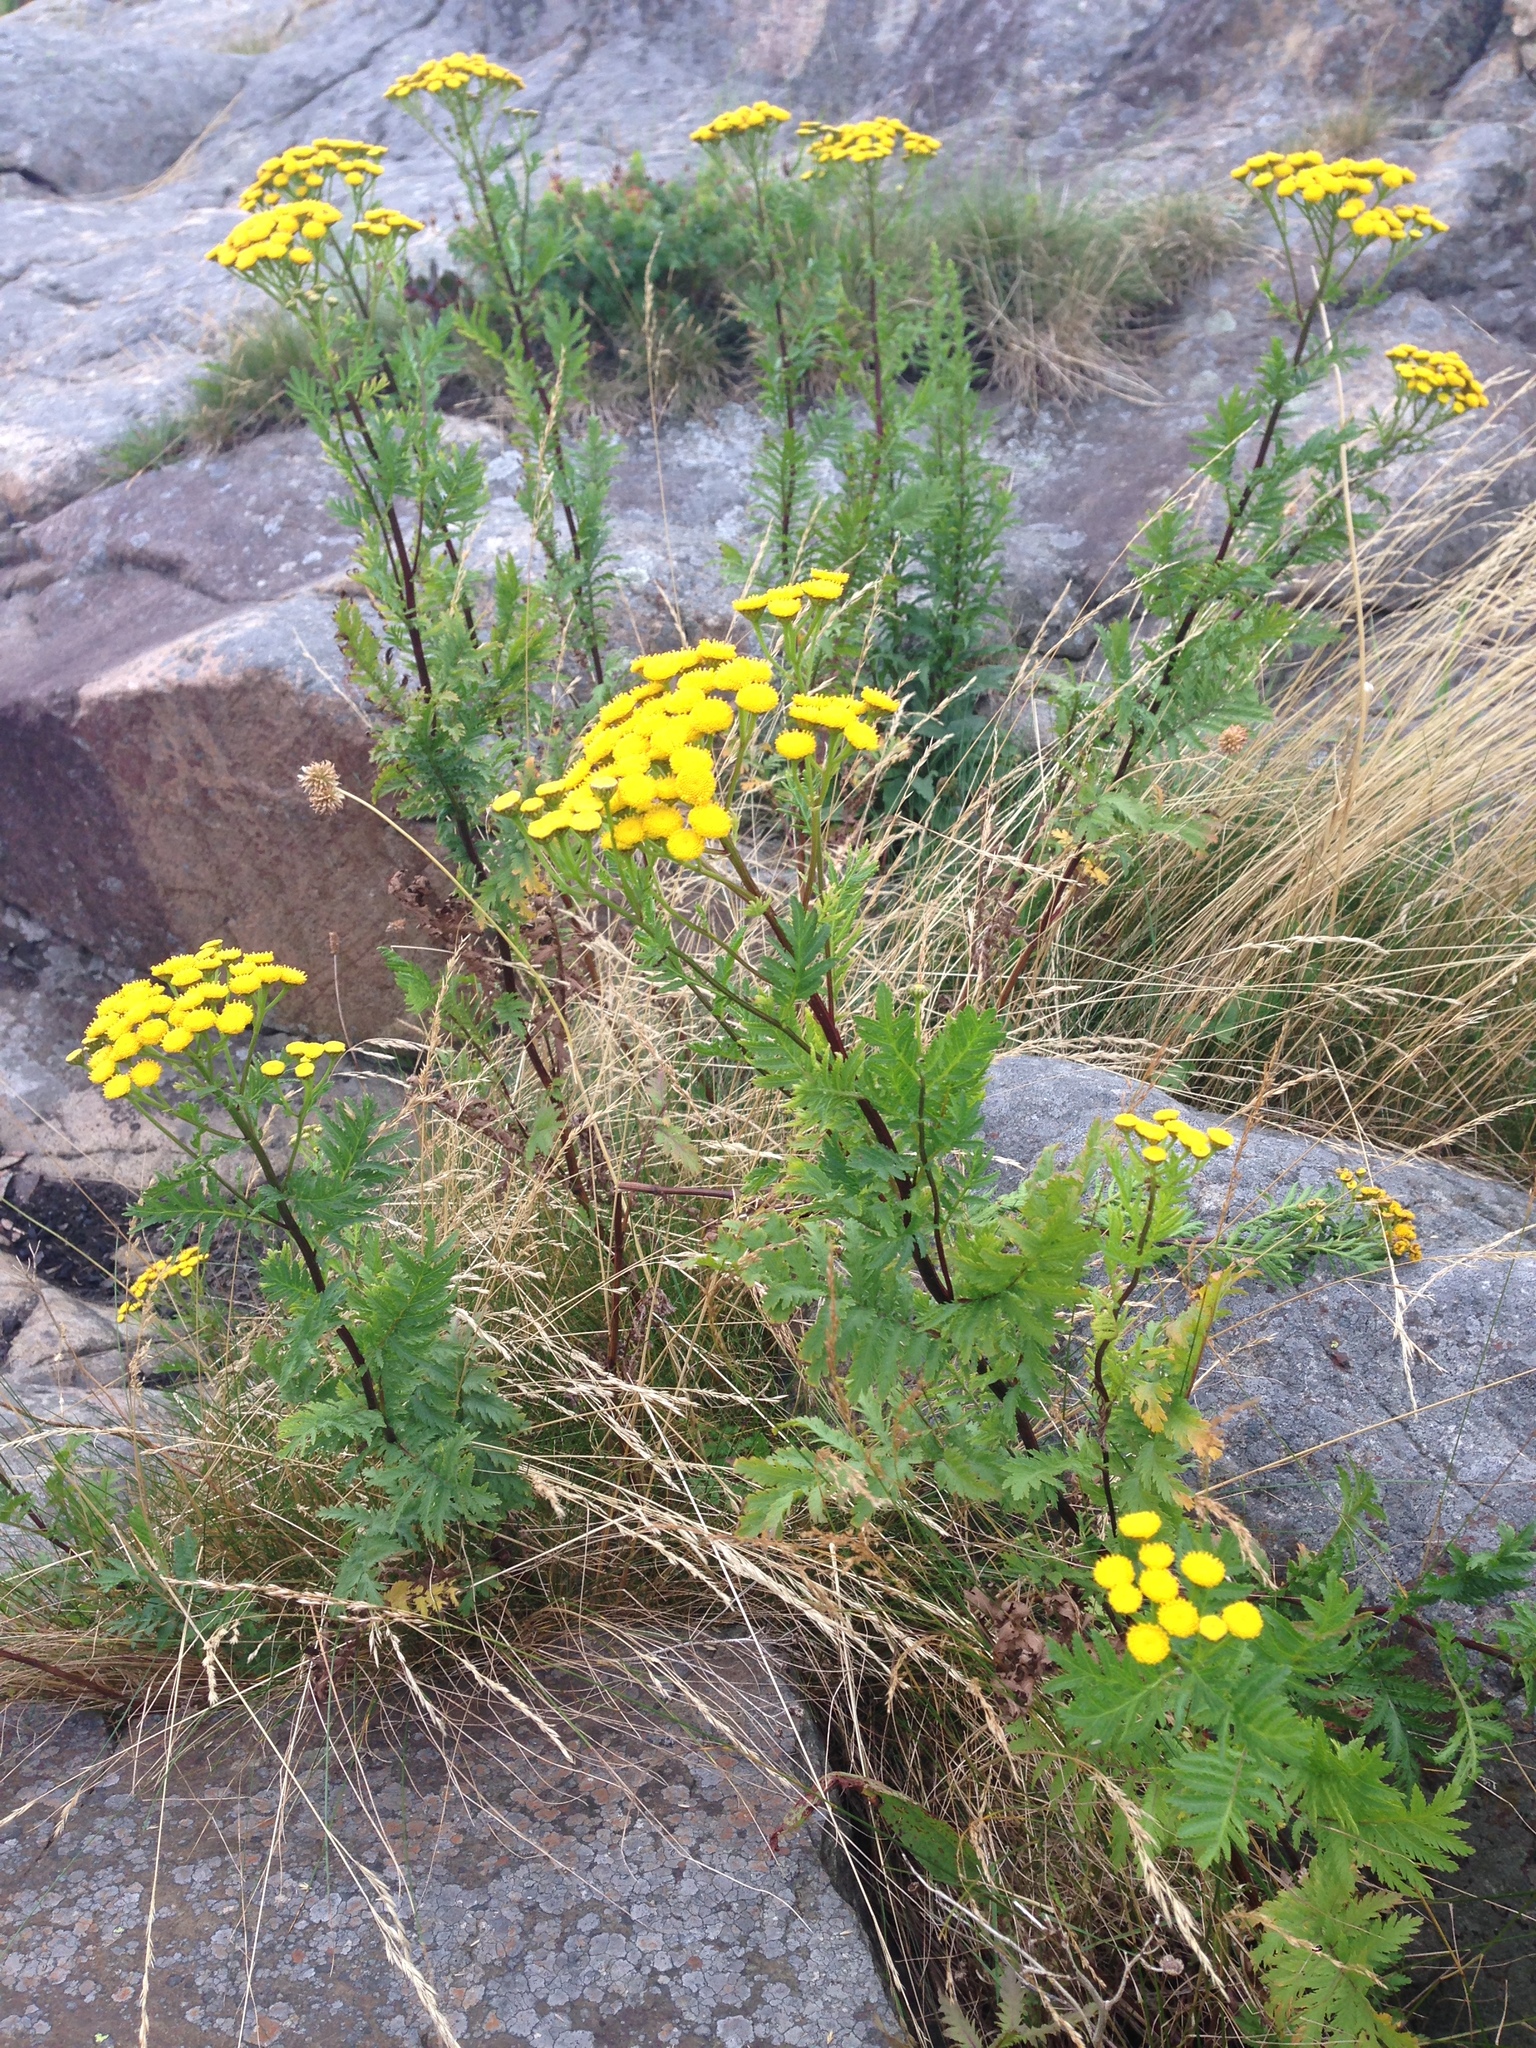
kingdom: Plantae
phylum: Tracheophyta
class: Magnoliopsida
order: Asterales
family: Asteraceae
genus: Tanacetum
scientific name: Tanacetum vulgare
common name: Common tansy
